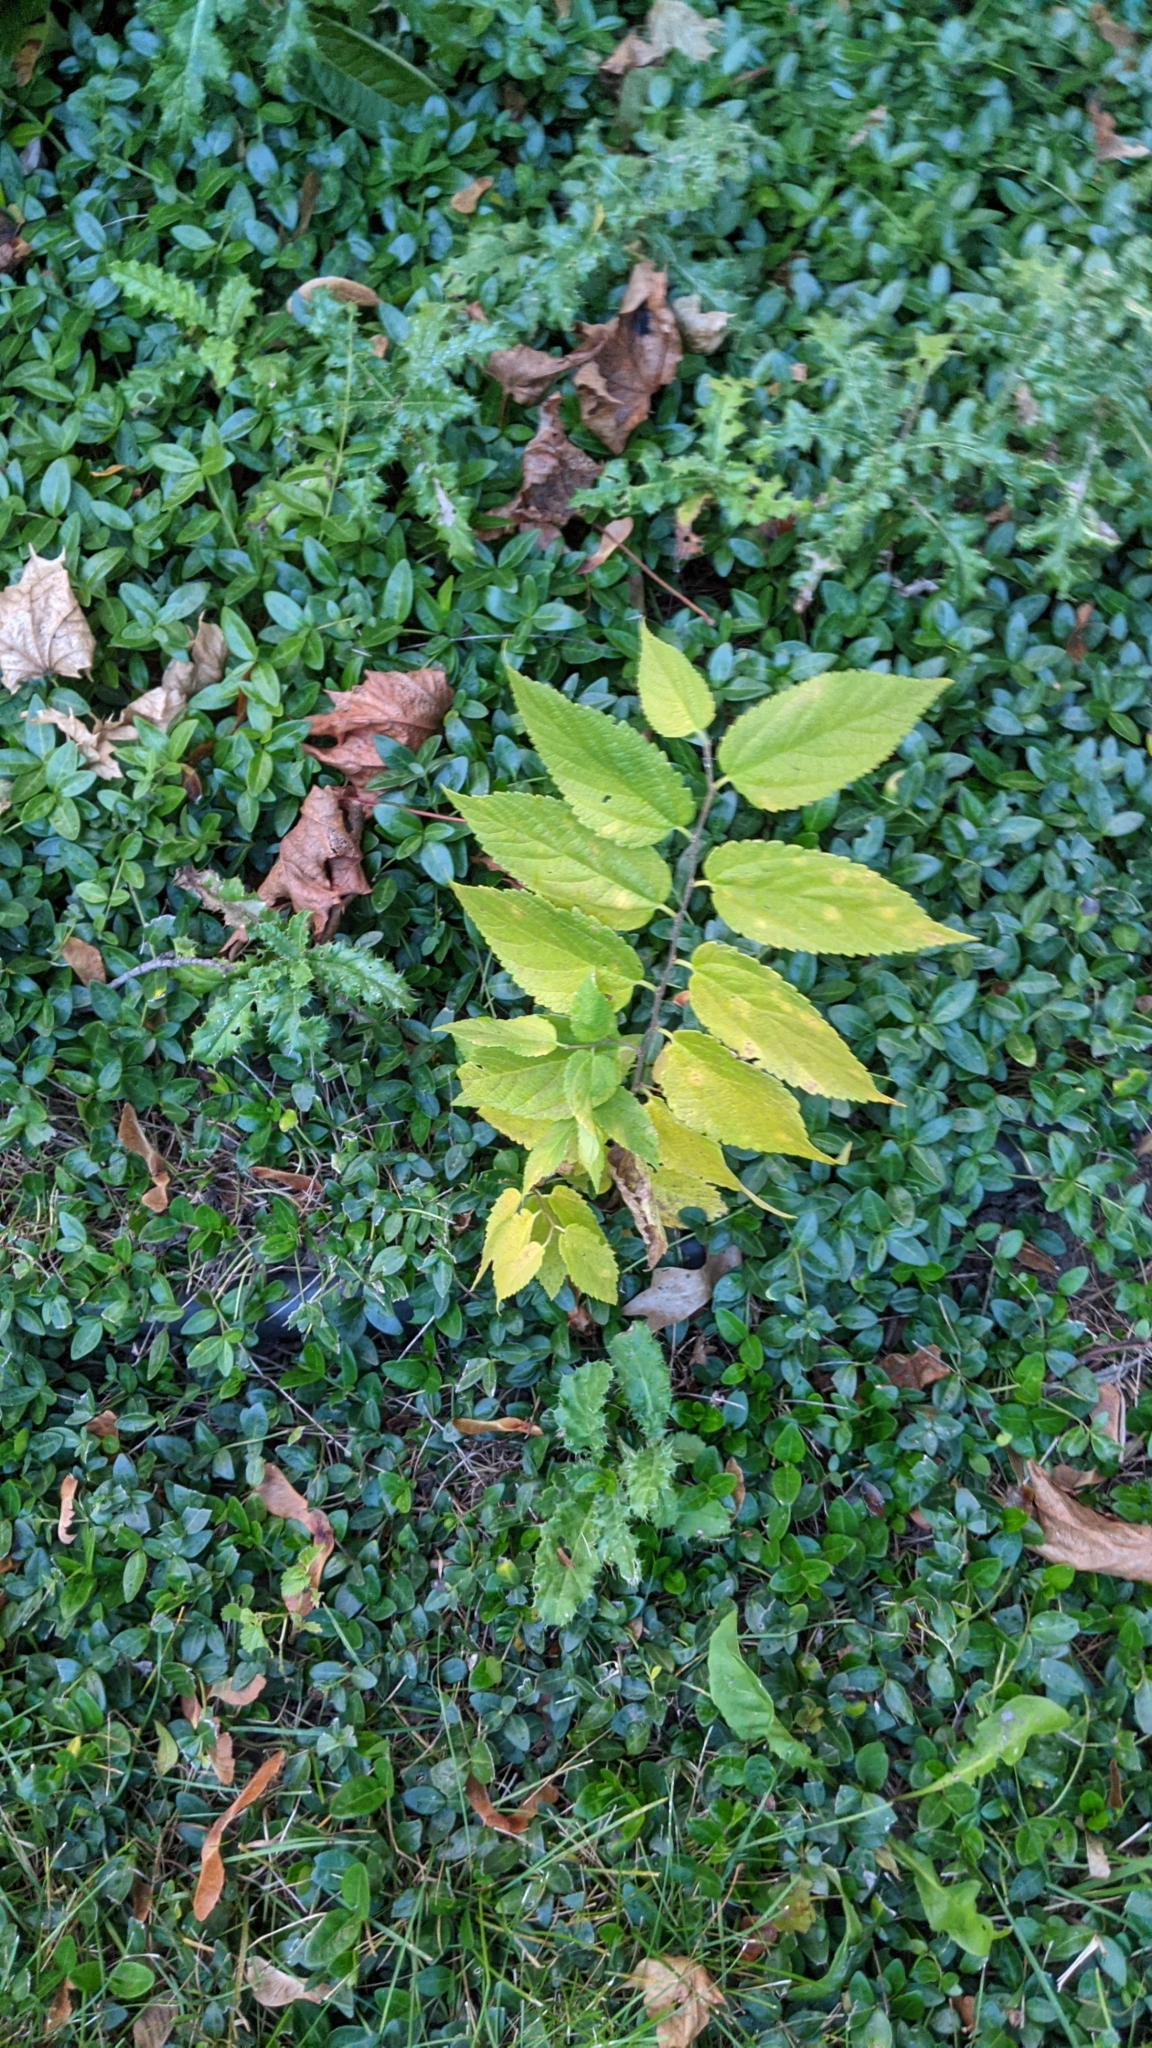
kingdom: Plantae
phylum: Tracheophyta
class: Magnoliopsida
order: Rosales
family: Cannabaceae
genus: Celtis
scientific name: Celtis occidentalis
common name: Common hackberry
